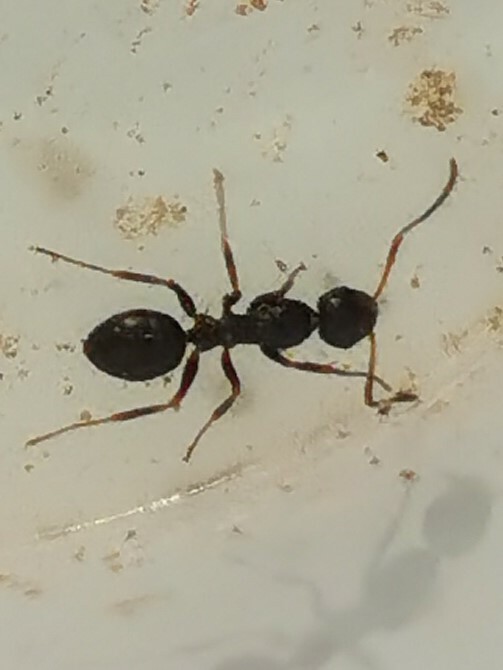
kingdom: Animalia
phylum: Arthropoda
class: Insecta
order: Hymenoptera
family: Formicidae
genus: Camponotus
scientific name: Camponotus piceus
